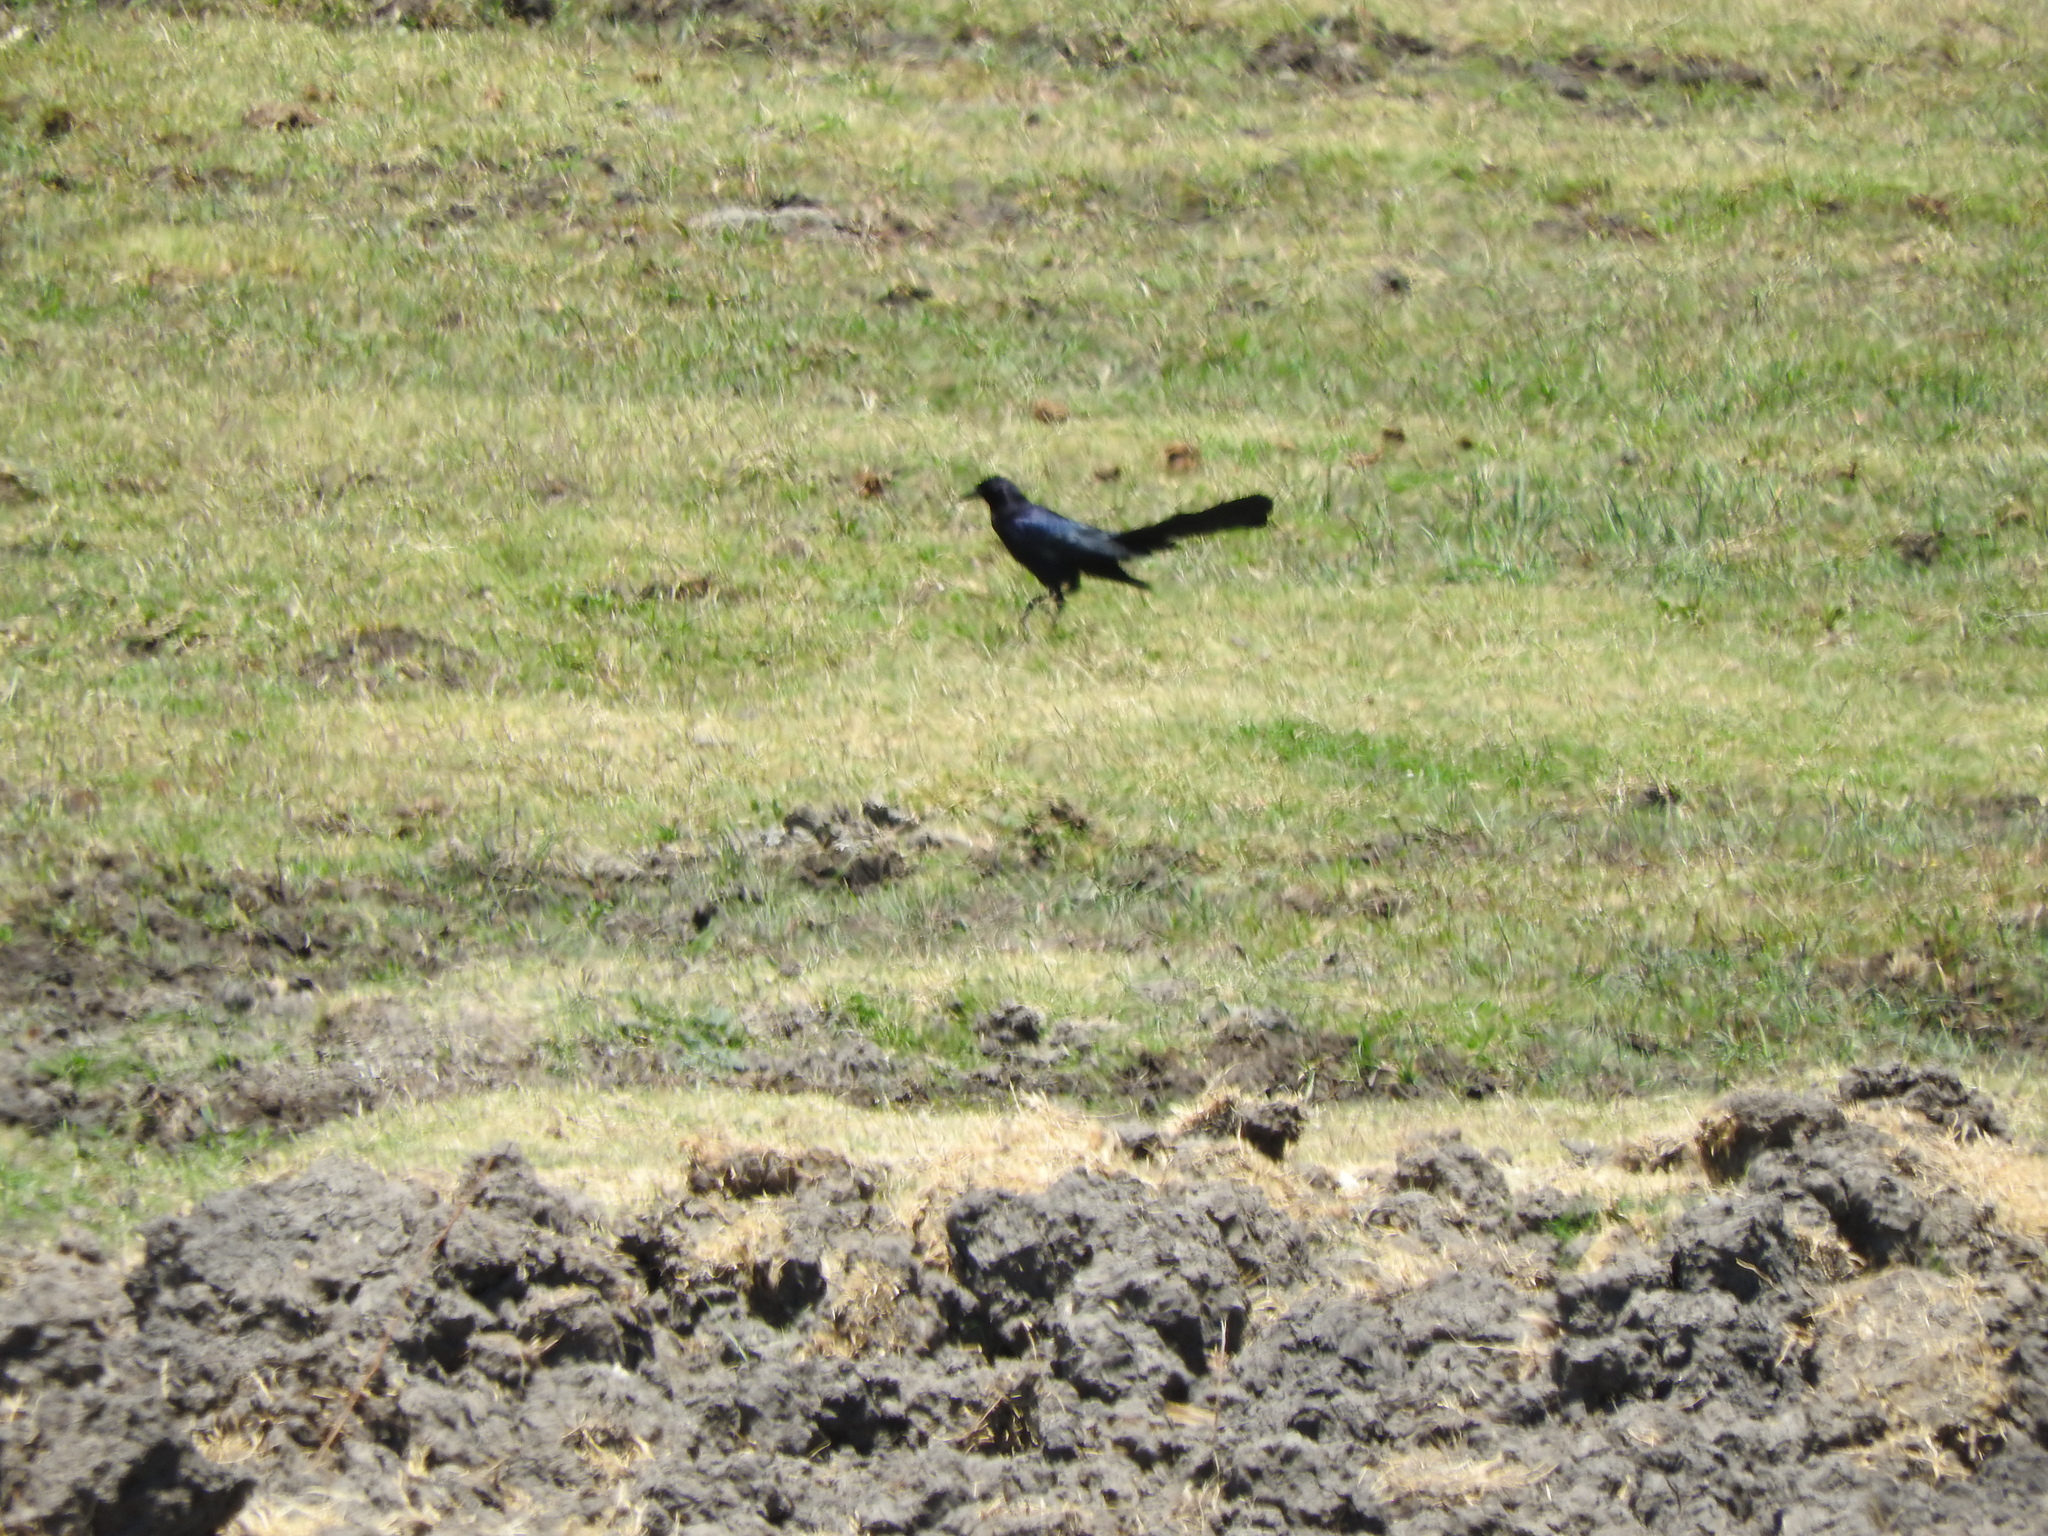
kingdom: Animalia
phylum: Chordata
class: Aves
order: Passeriformes
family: Icteridae
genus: Quiscalus
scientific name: Quiscalus mexicanus
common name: Great-tailed grackle
